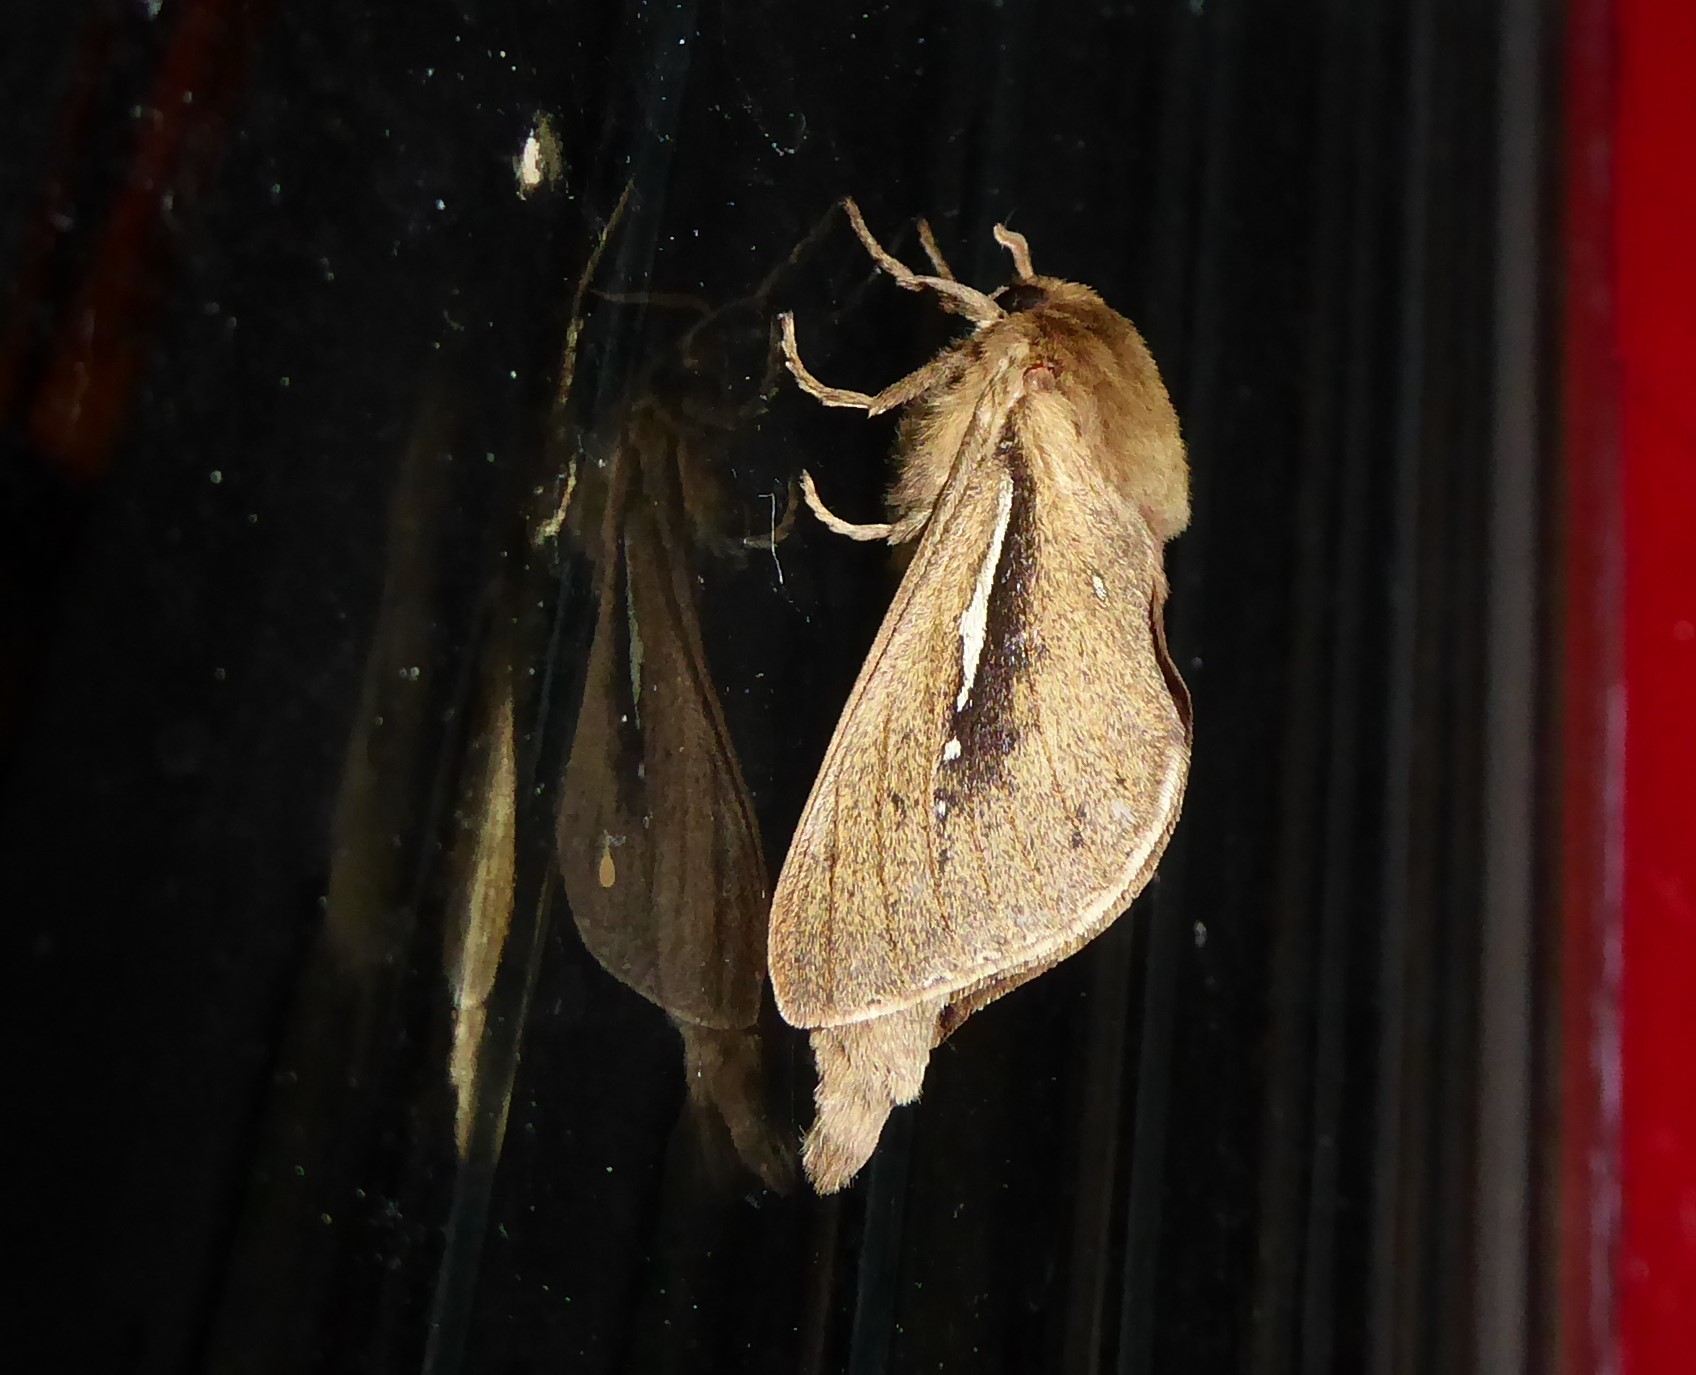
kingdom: Animalia
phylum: Arthropoda
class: Insecta
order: Lepidoptera
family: Hepialidae
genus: Wiseana
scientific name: Wiseana umbraculatus
